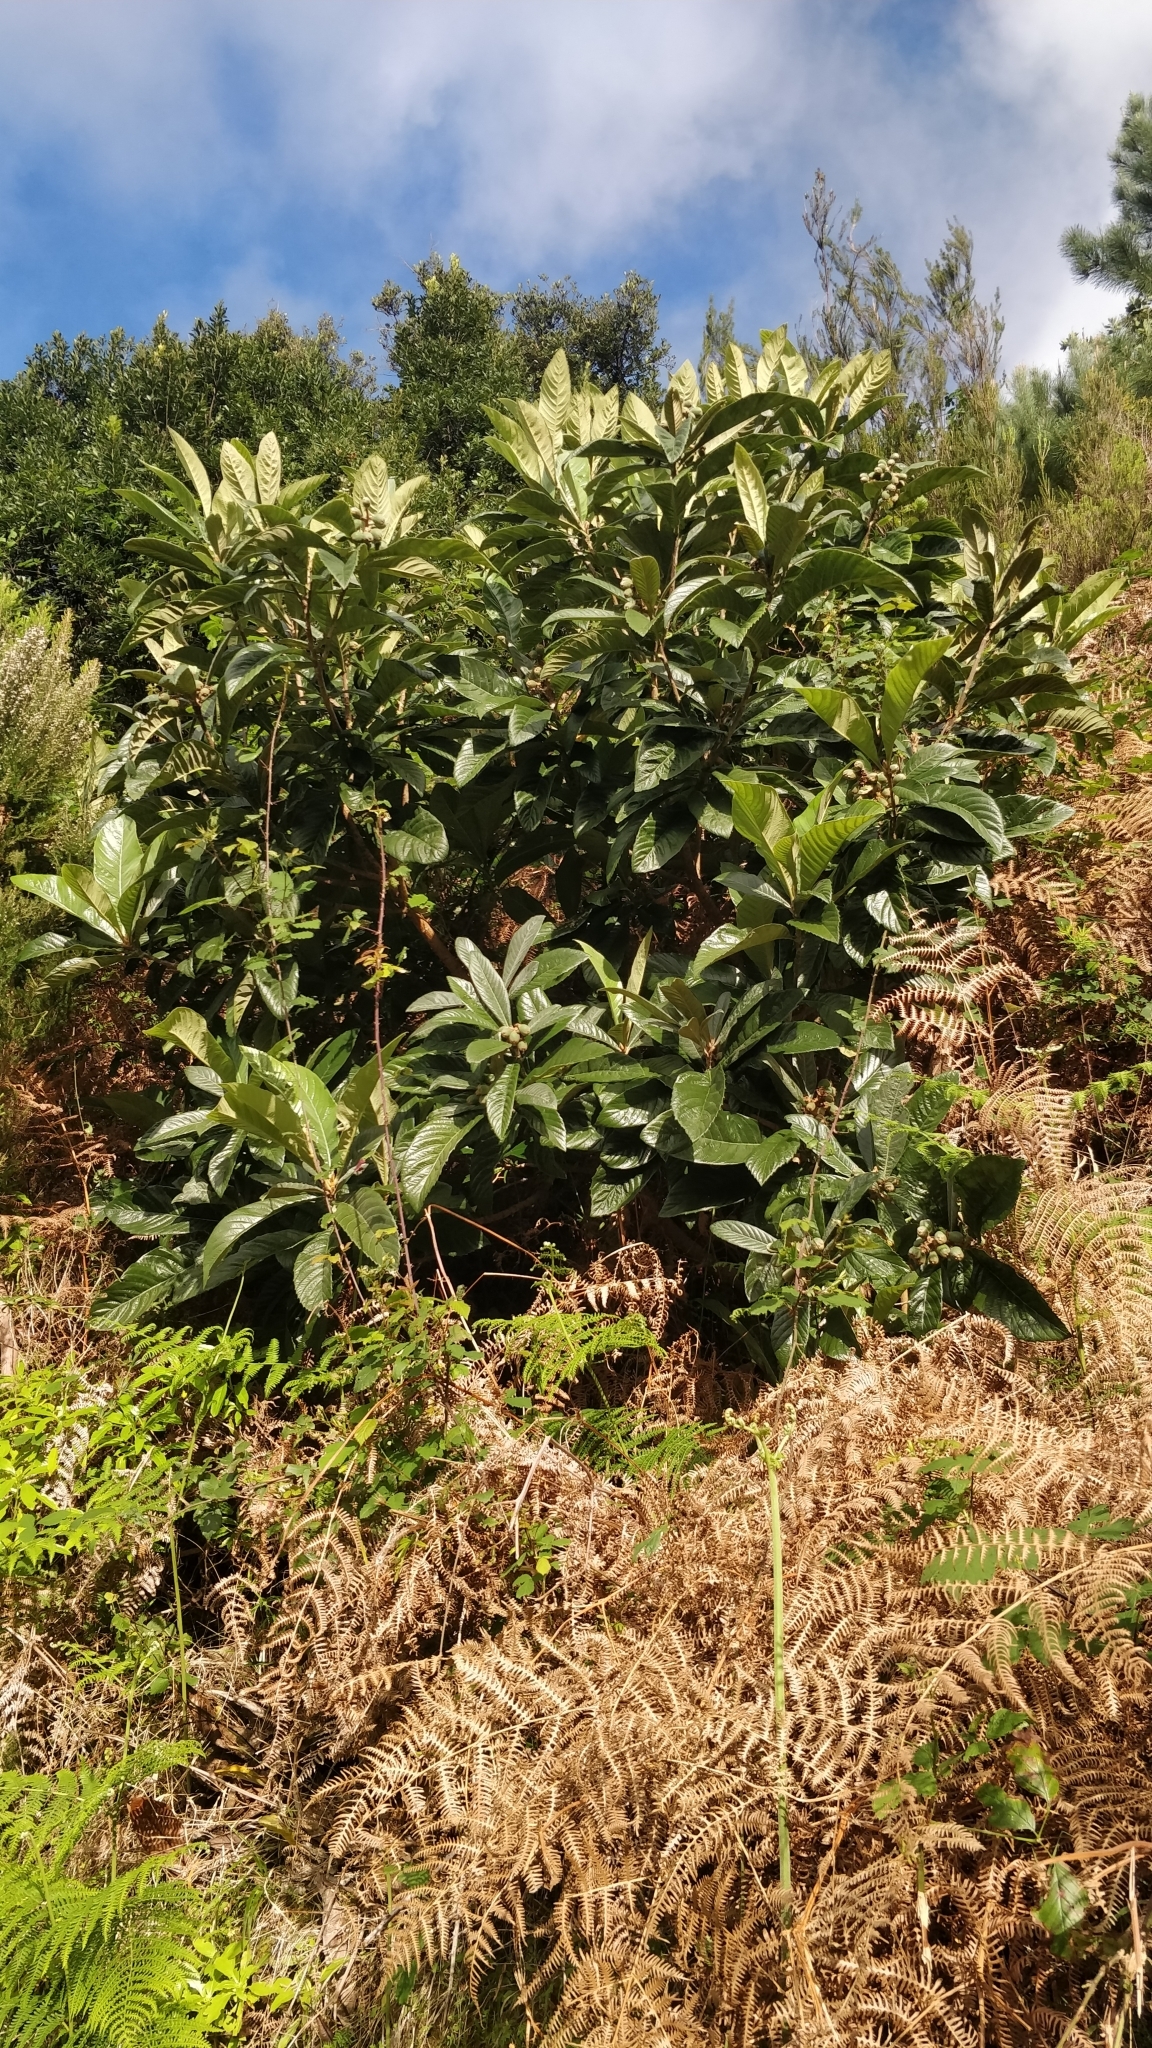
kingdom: Plantae
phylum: Tracheophyta
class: Magnoliopsida
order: Rosales
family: Rosaceae
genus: Rhaphiolepis
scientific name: Rhaphiolepis bibas
